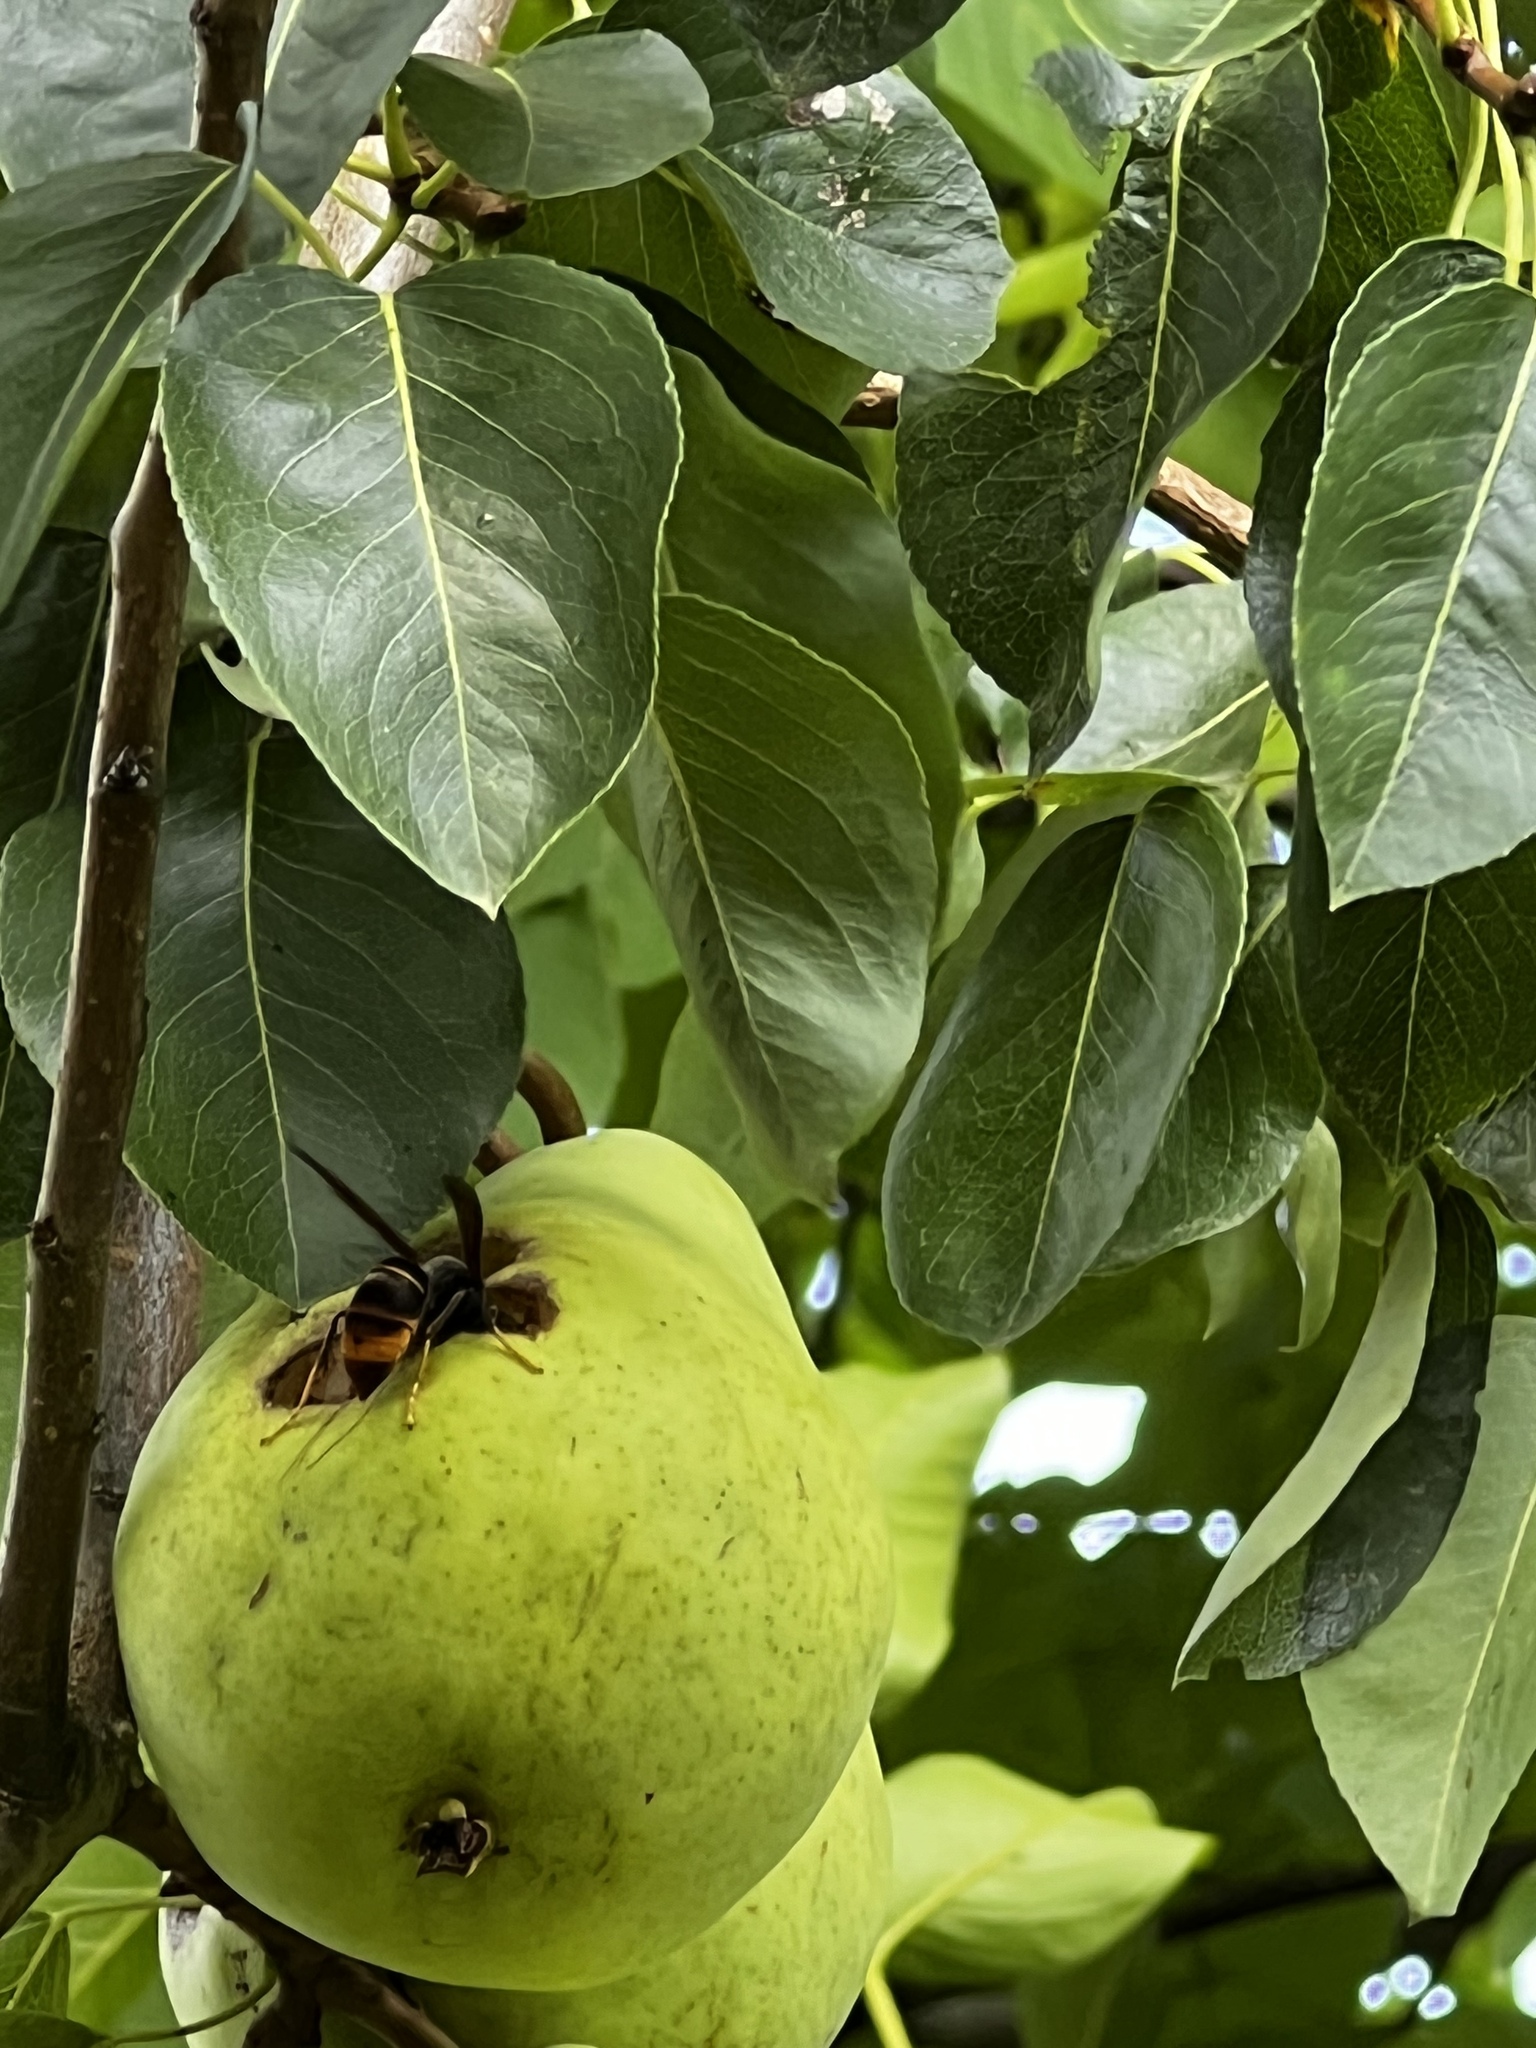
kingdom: Animalia
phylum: Arthropoda
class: Insecta
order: Hymenoptera
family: Vespidae
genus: Vespa
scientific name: Vespa velutina
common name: Asian hornet
